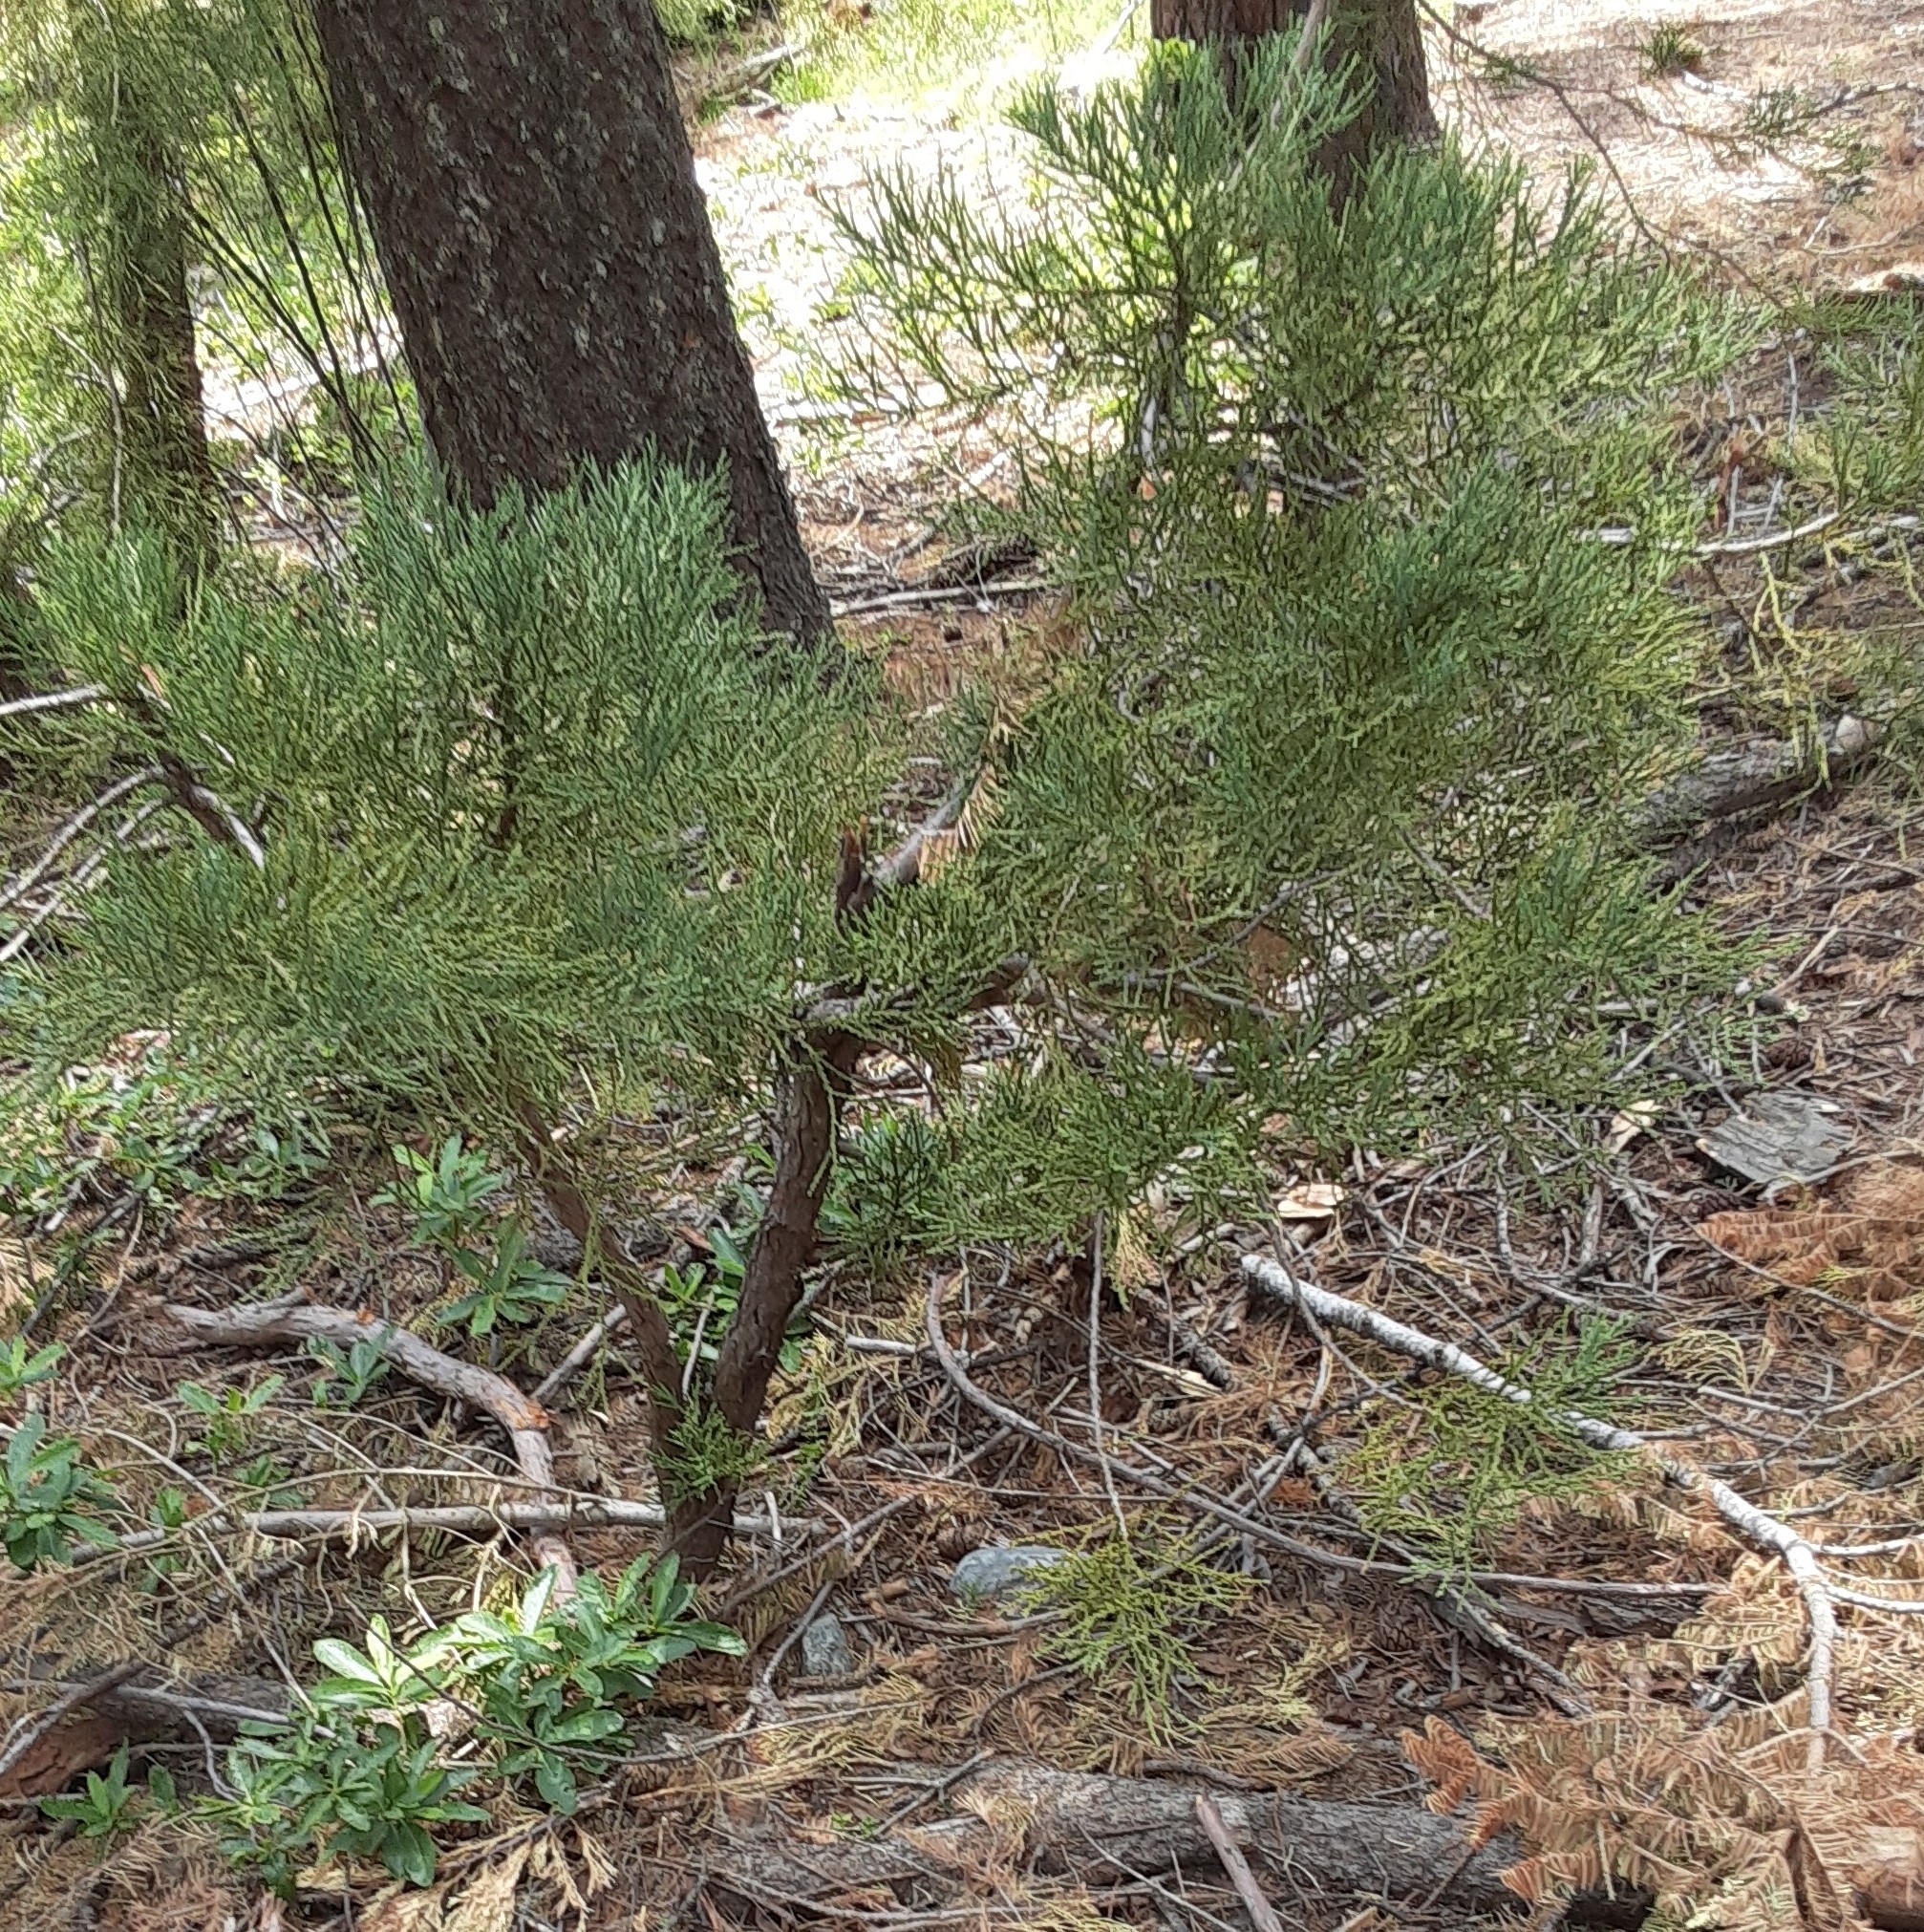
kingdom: Plantae
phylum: Tracheophyta
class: Pinopsida
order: Pinales
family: Cupressaceae
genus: Sequoiadendron
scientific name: Sequoiadendron giganteum
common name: Wellingtonia
